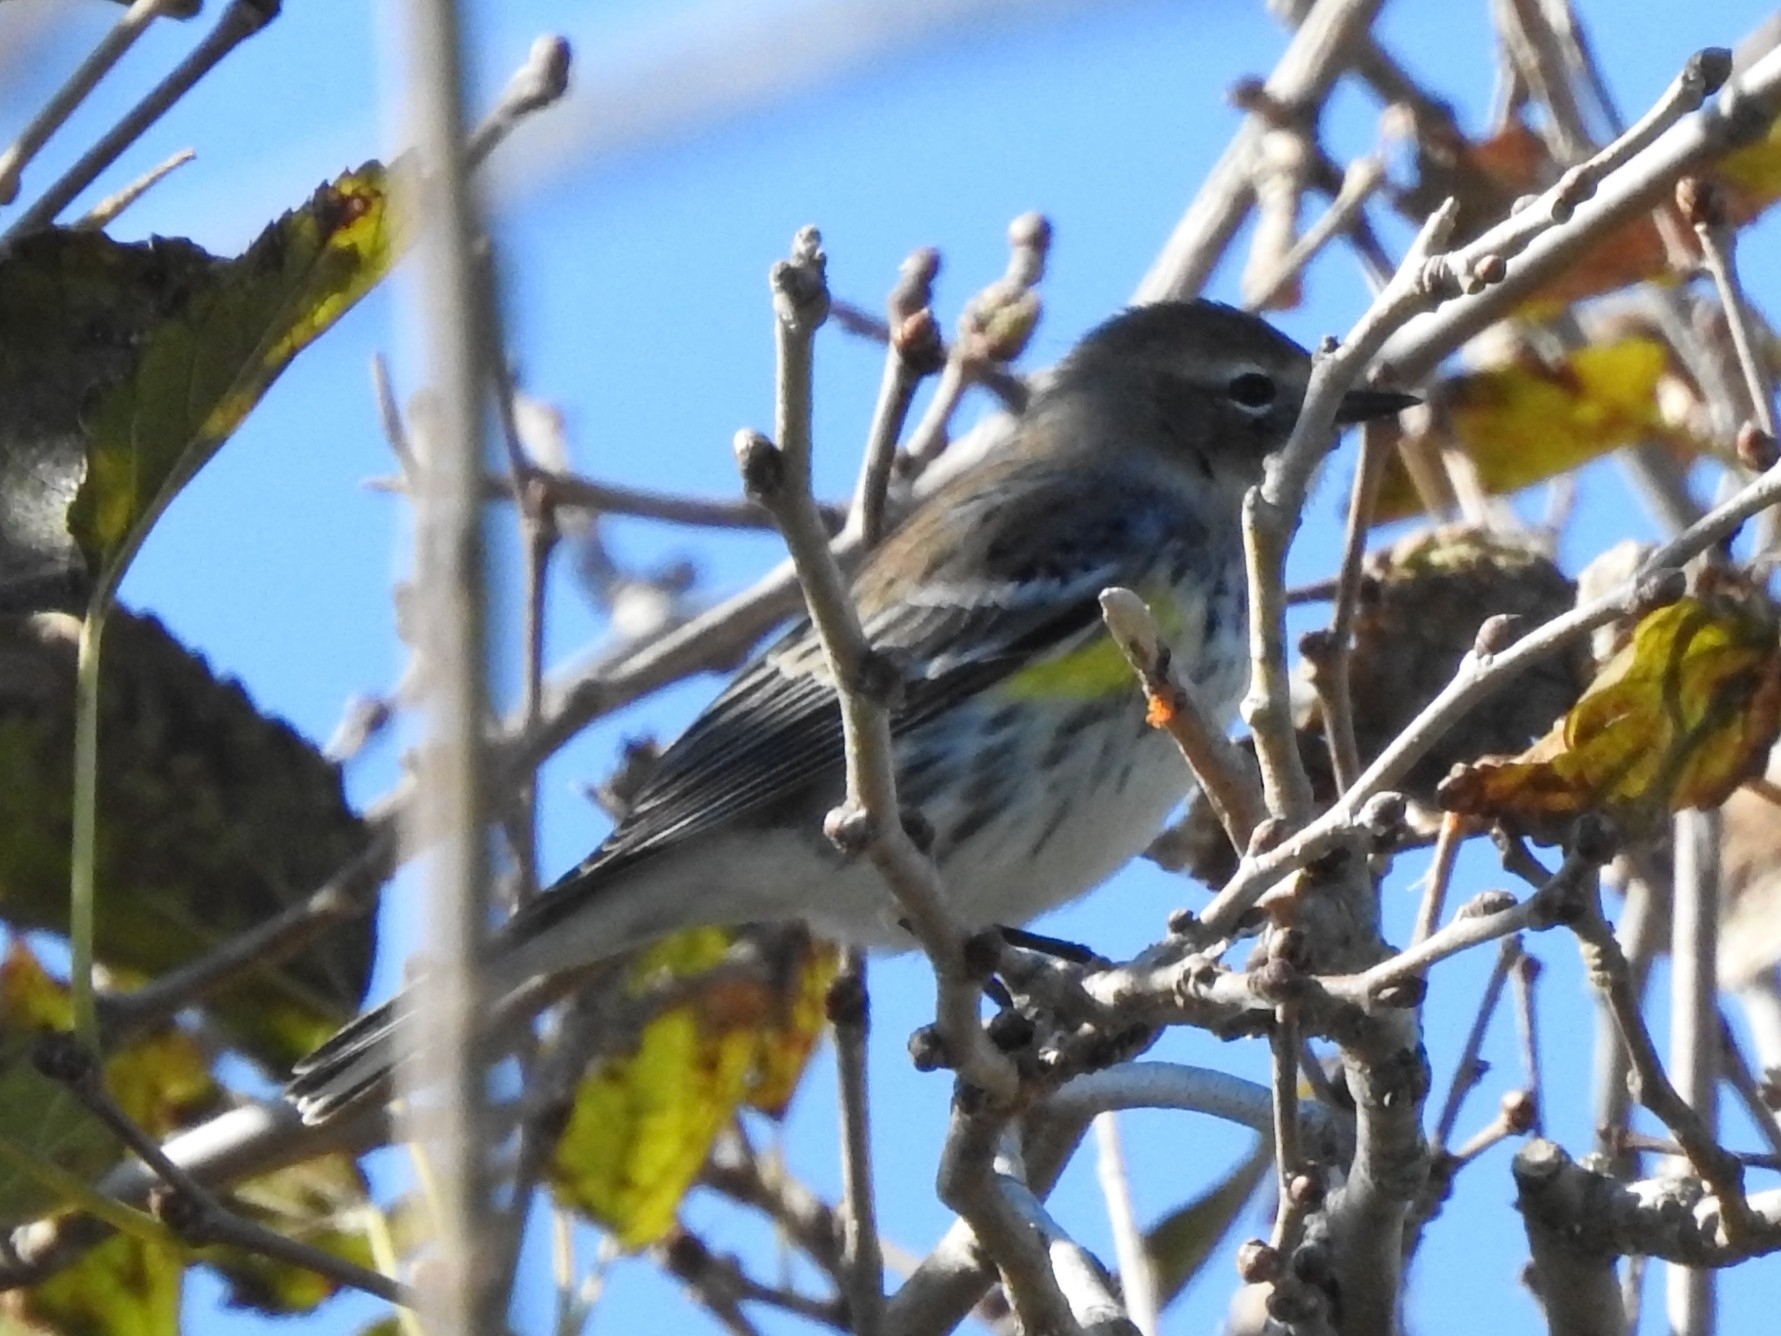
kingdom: Animalia
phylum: Chordata
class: Aves
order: Passeriformes
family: Parulidae
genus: Setophaga
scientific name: Setophaga coronata
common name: Myrtle warbler
